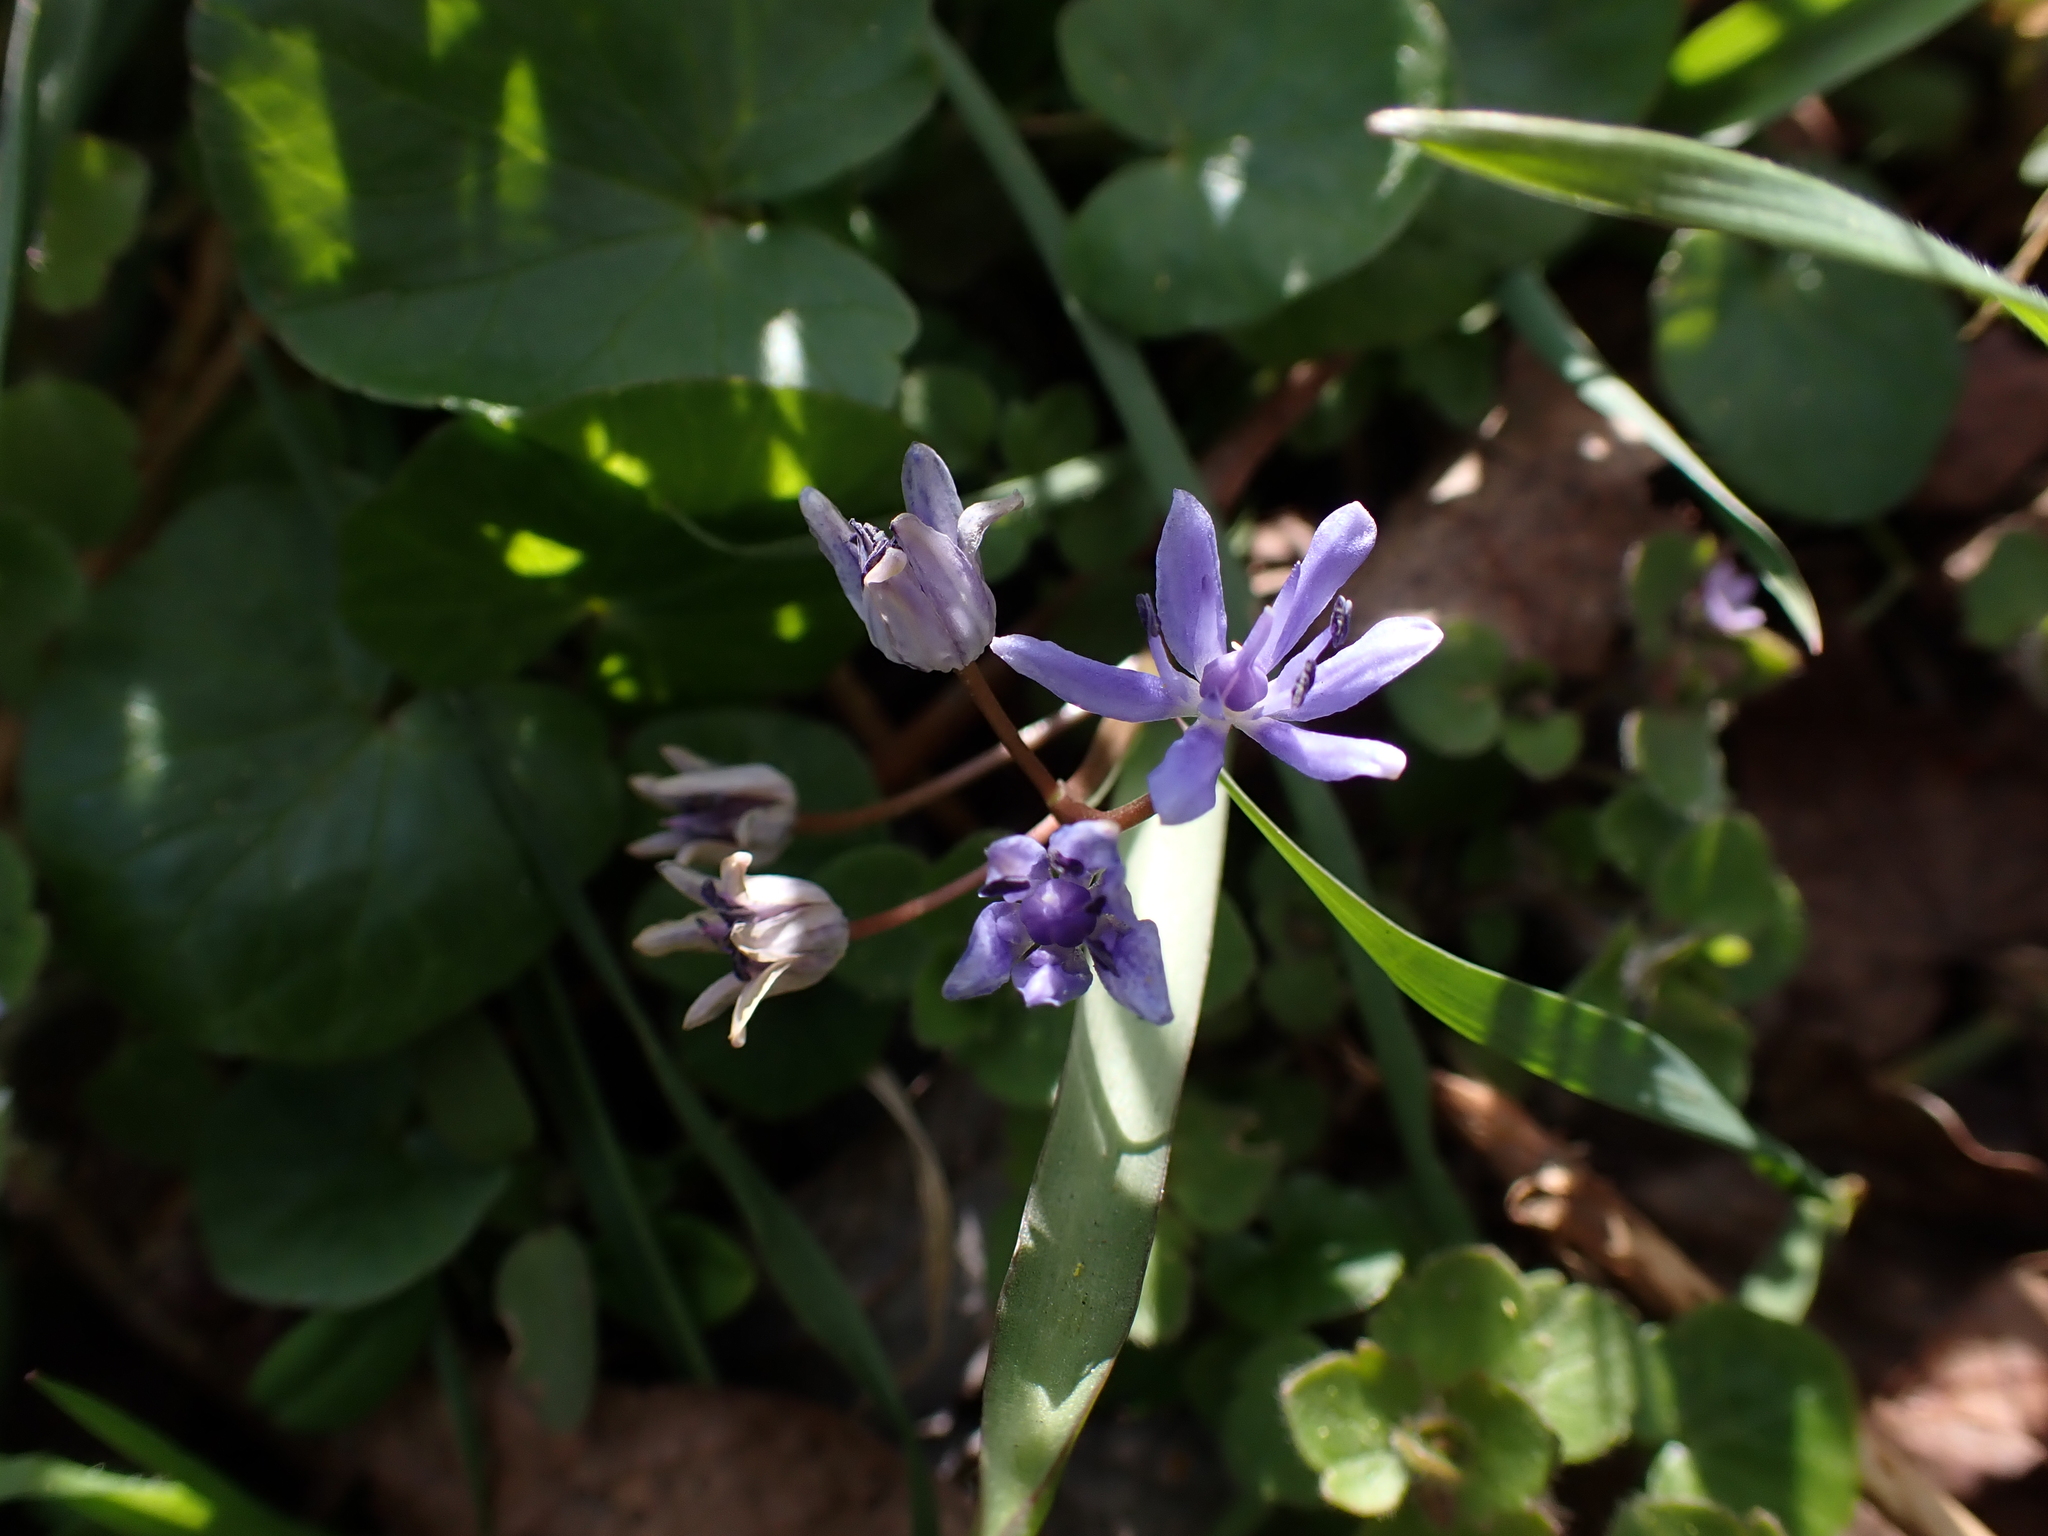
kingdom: Plantae
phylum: Tracheophyta
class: Liliopsida
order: Asparagales
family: Asparagaceae
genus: Scilla
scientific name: Scilla vindobonensis
